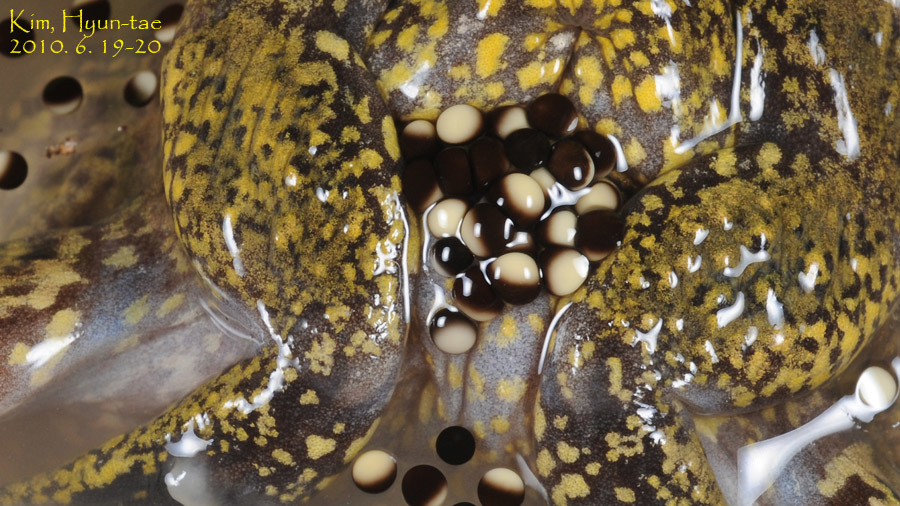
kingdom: Animalia
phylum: Chordata
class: Amphibia
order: Anura
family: Microhylidae
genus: Kaloula
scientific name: Kaloula borealis
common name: Boreal digging frog
